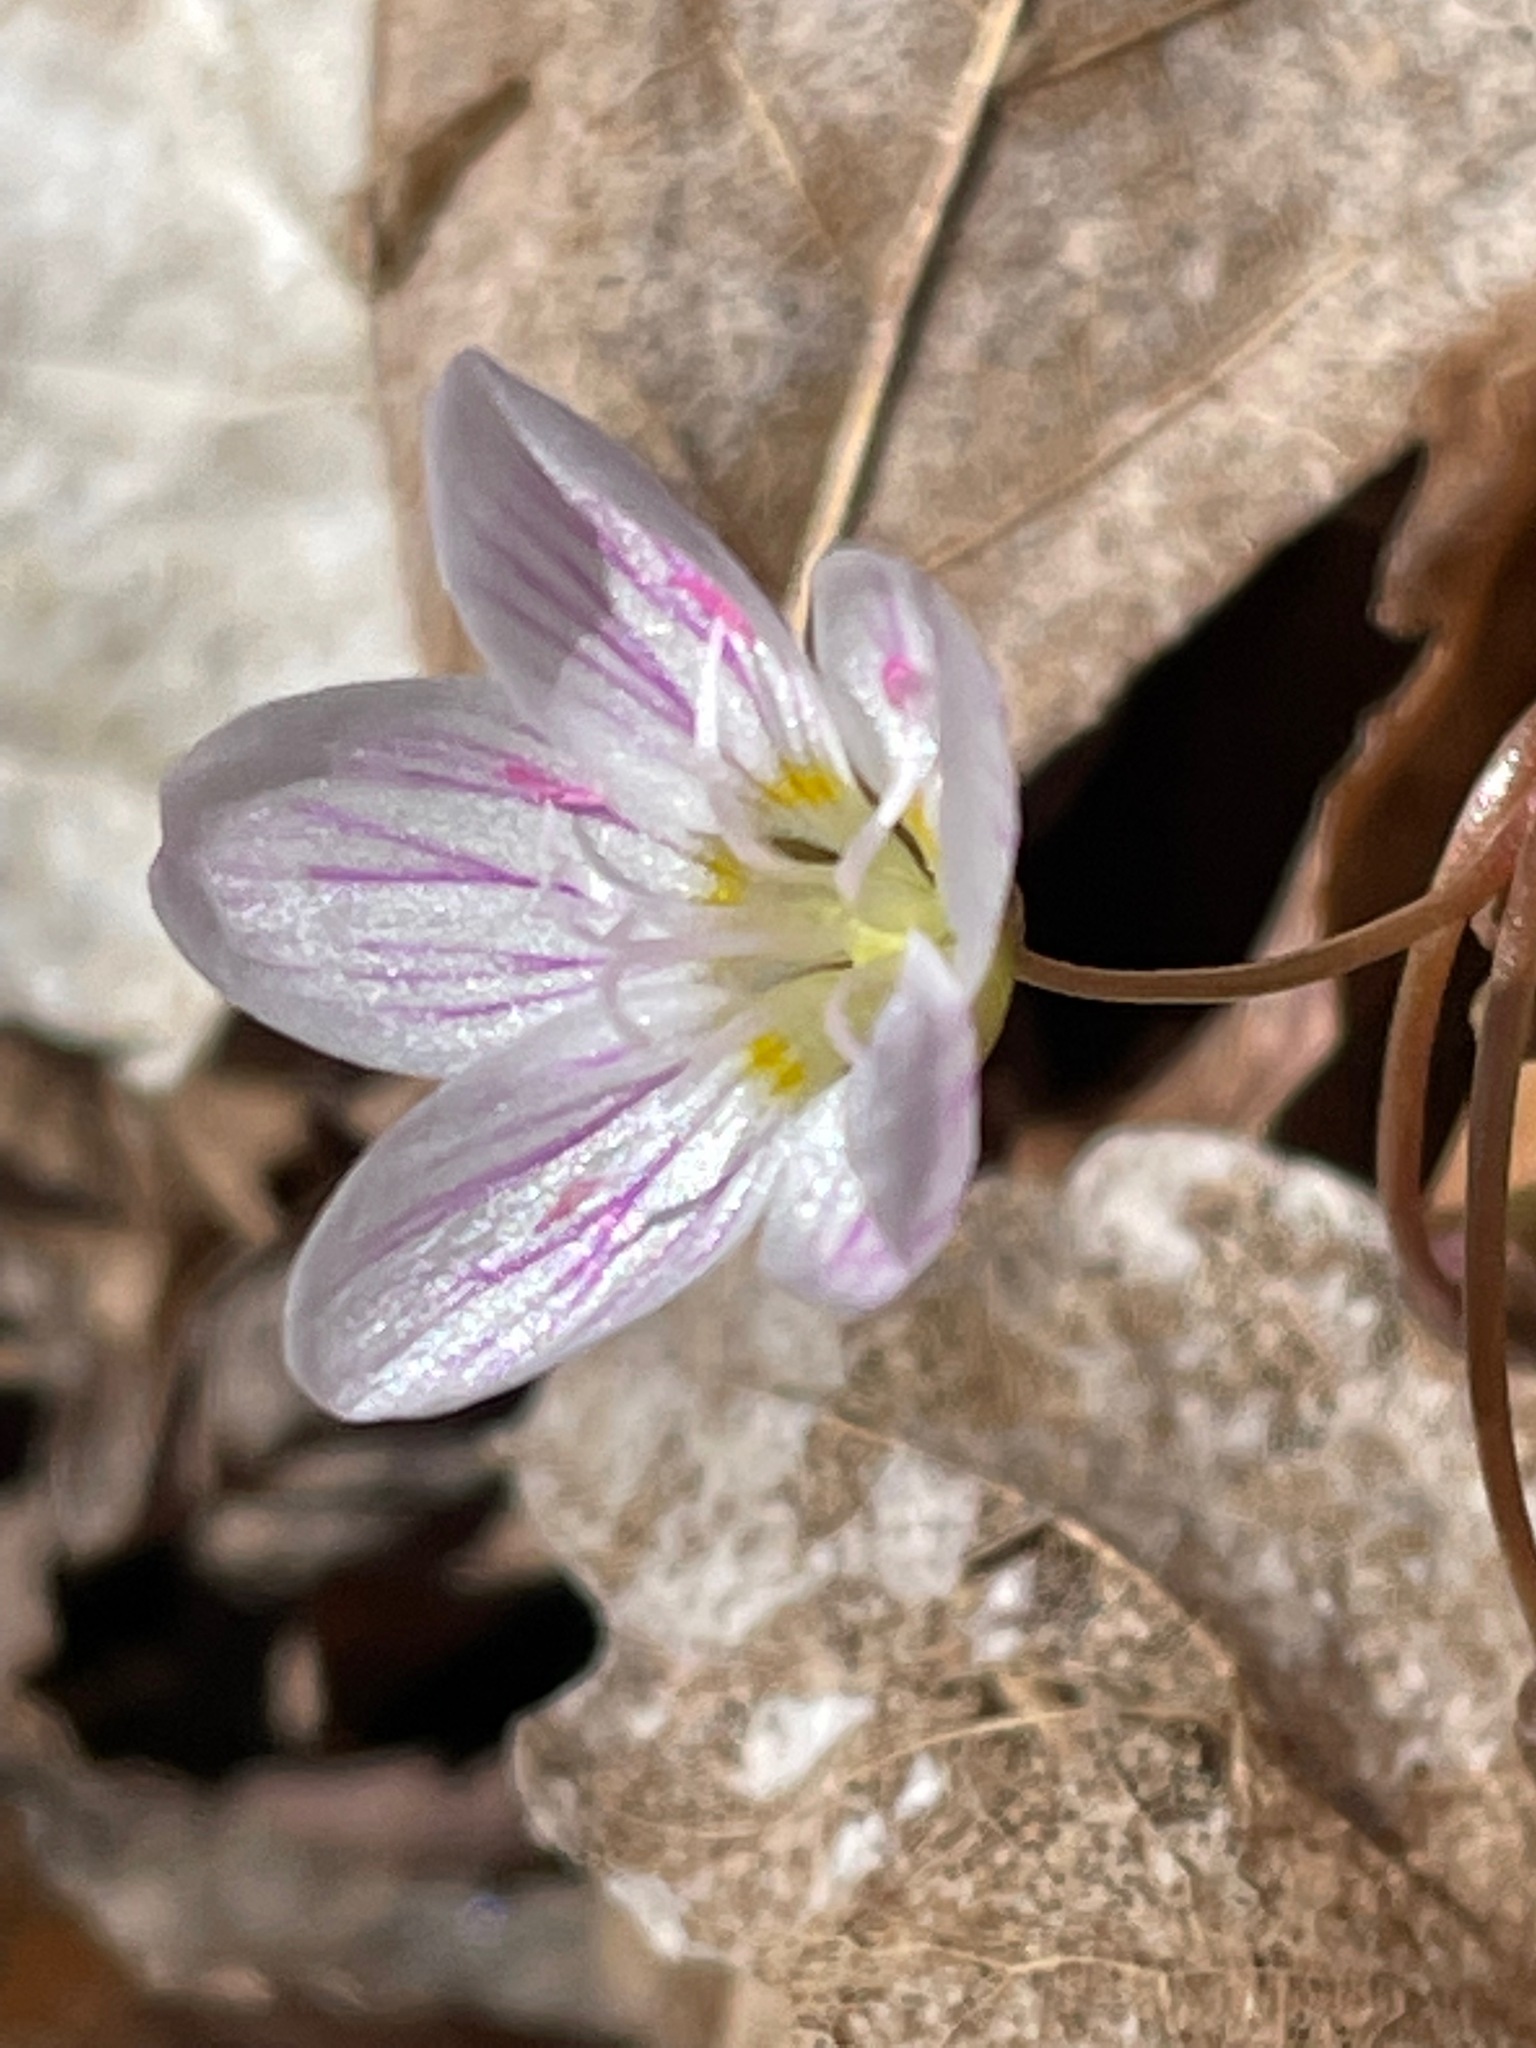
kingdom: Plantae
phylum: Tracheophyta
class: Magnoliopsida
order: Caryophyllales
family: Montiaceae
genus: Claytonia
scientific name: Claytonia caroliniana
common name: Carolina spring beauty
